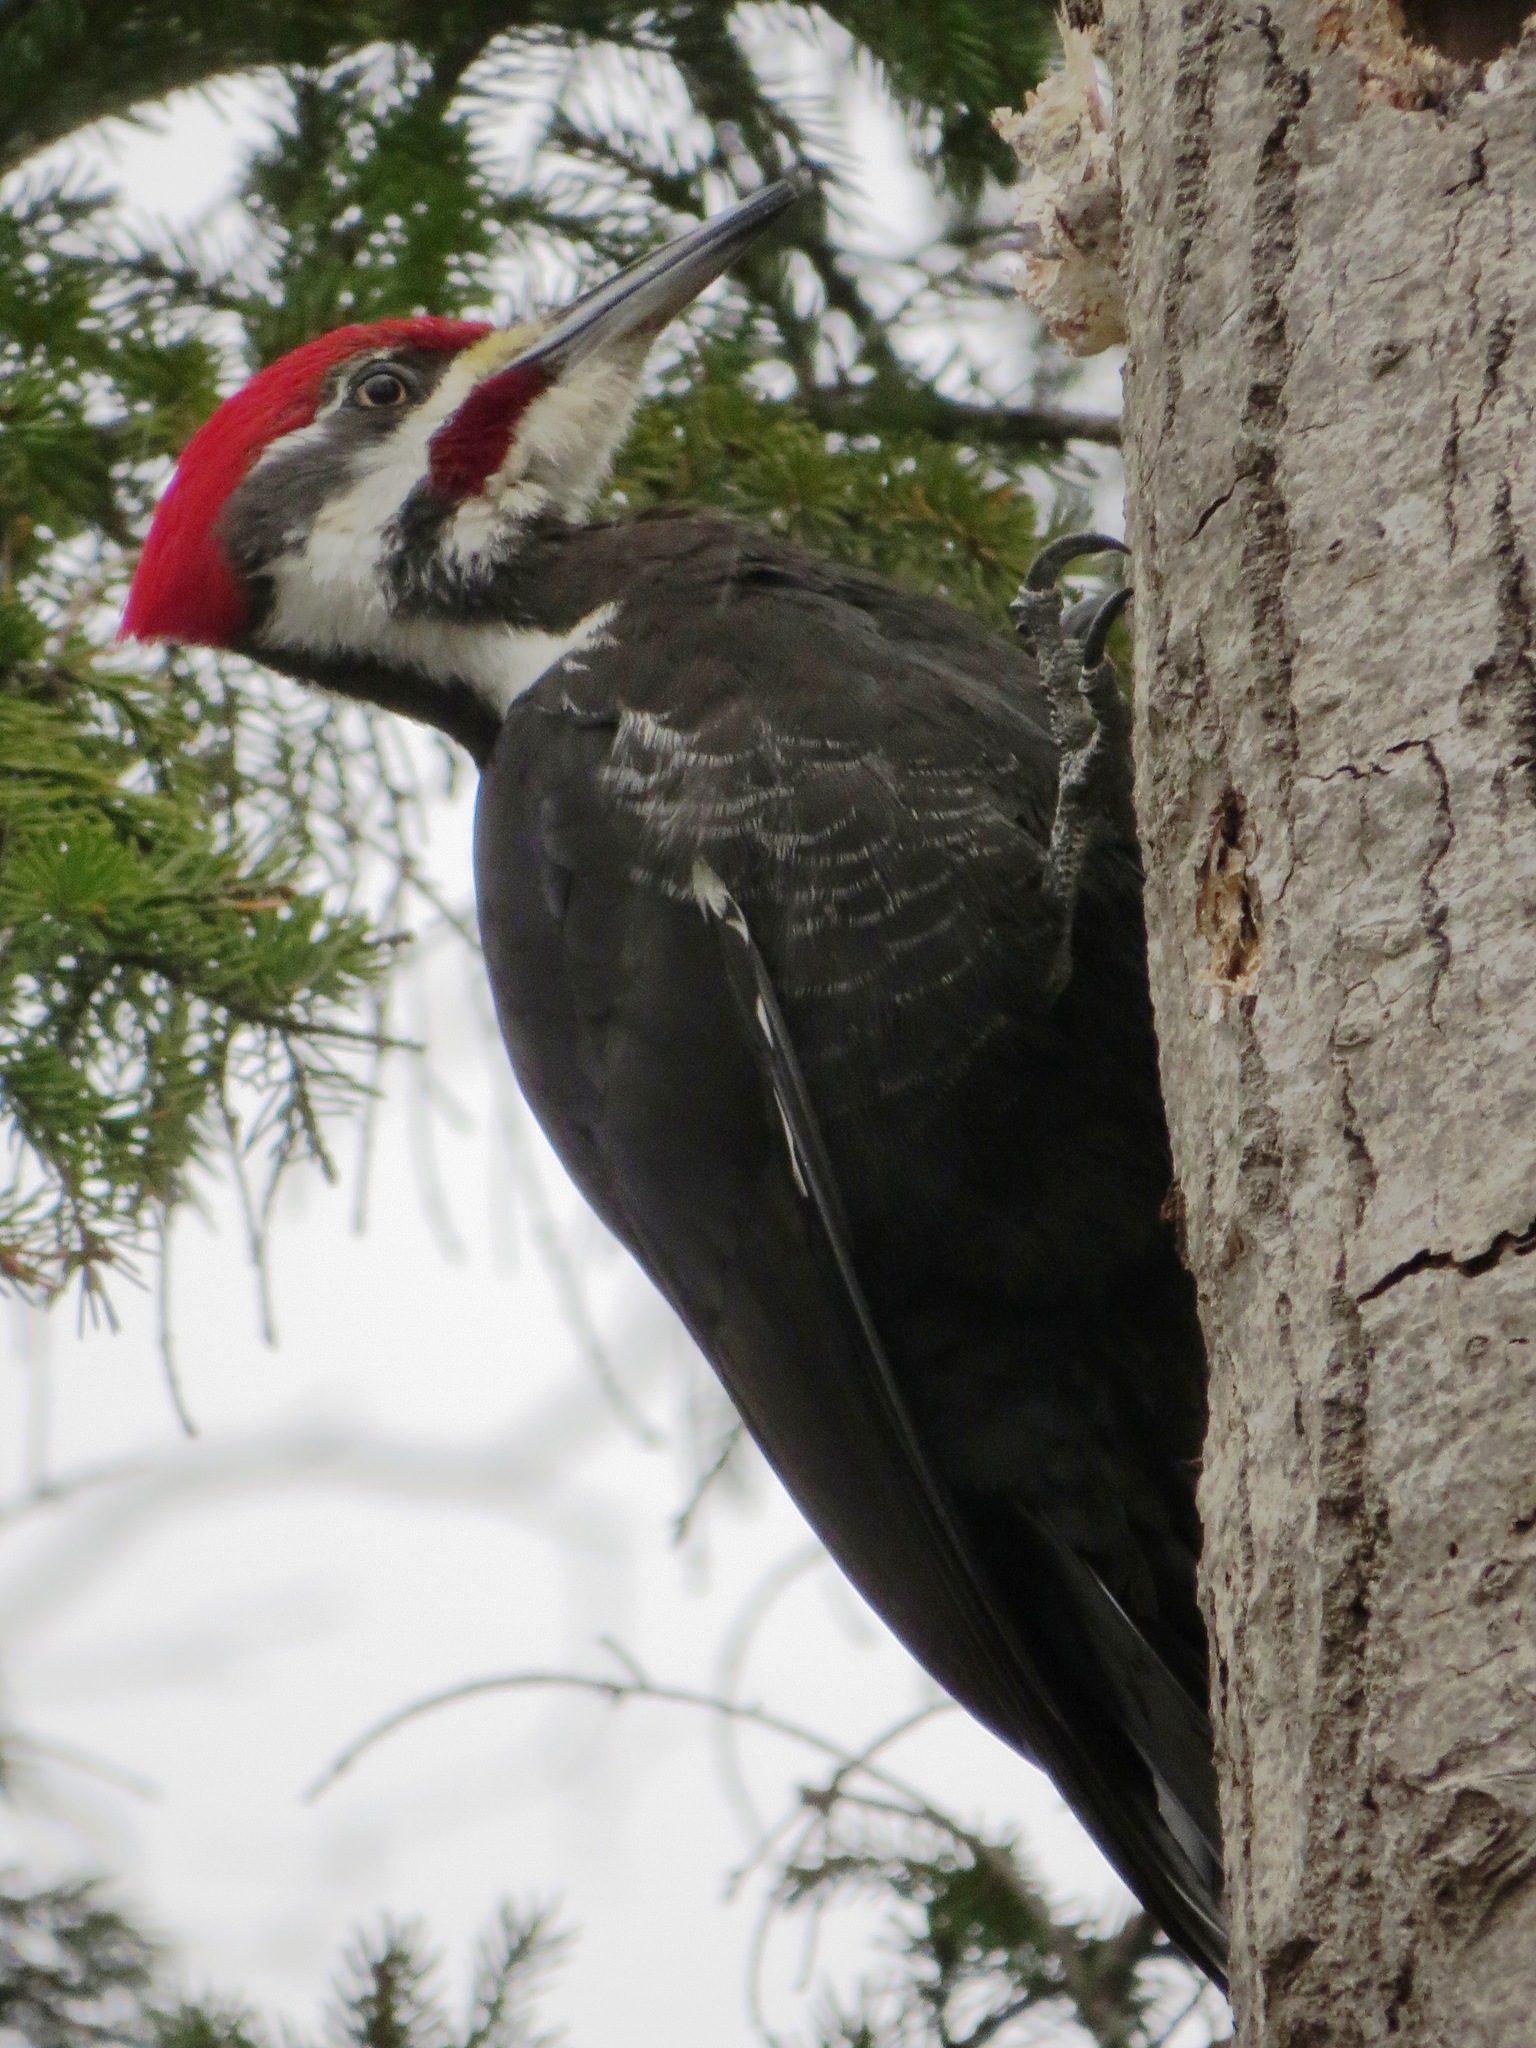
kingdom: Animalia
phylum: Chordata
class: Aves
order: Piciformes
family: Picidae
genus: Dryocopus
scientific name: Dryocopus pileatus
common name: Pileated woodpecker
